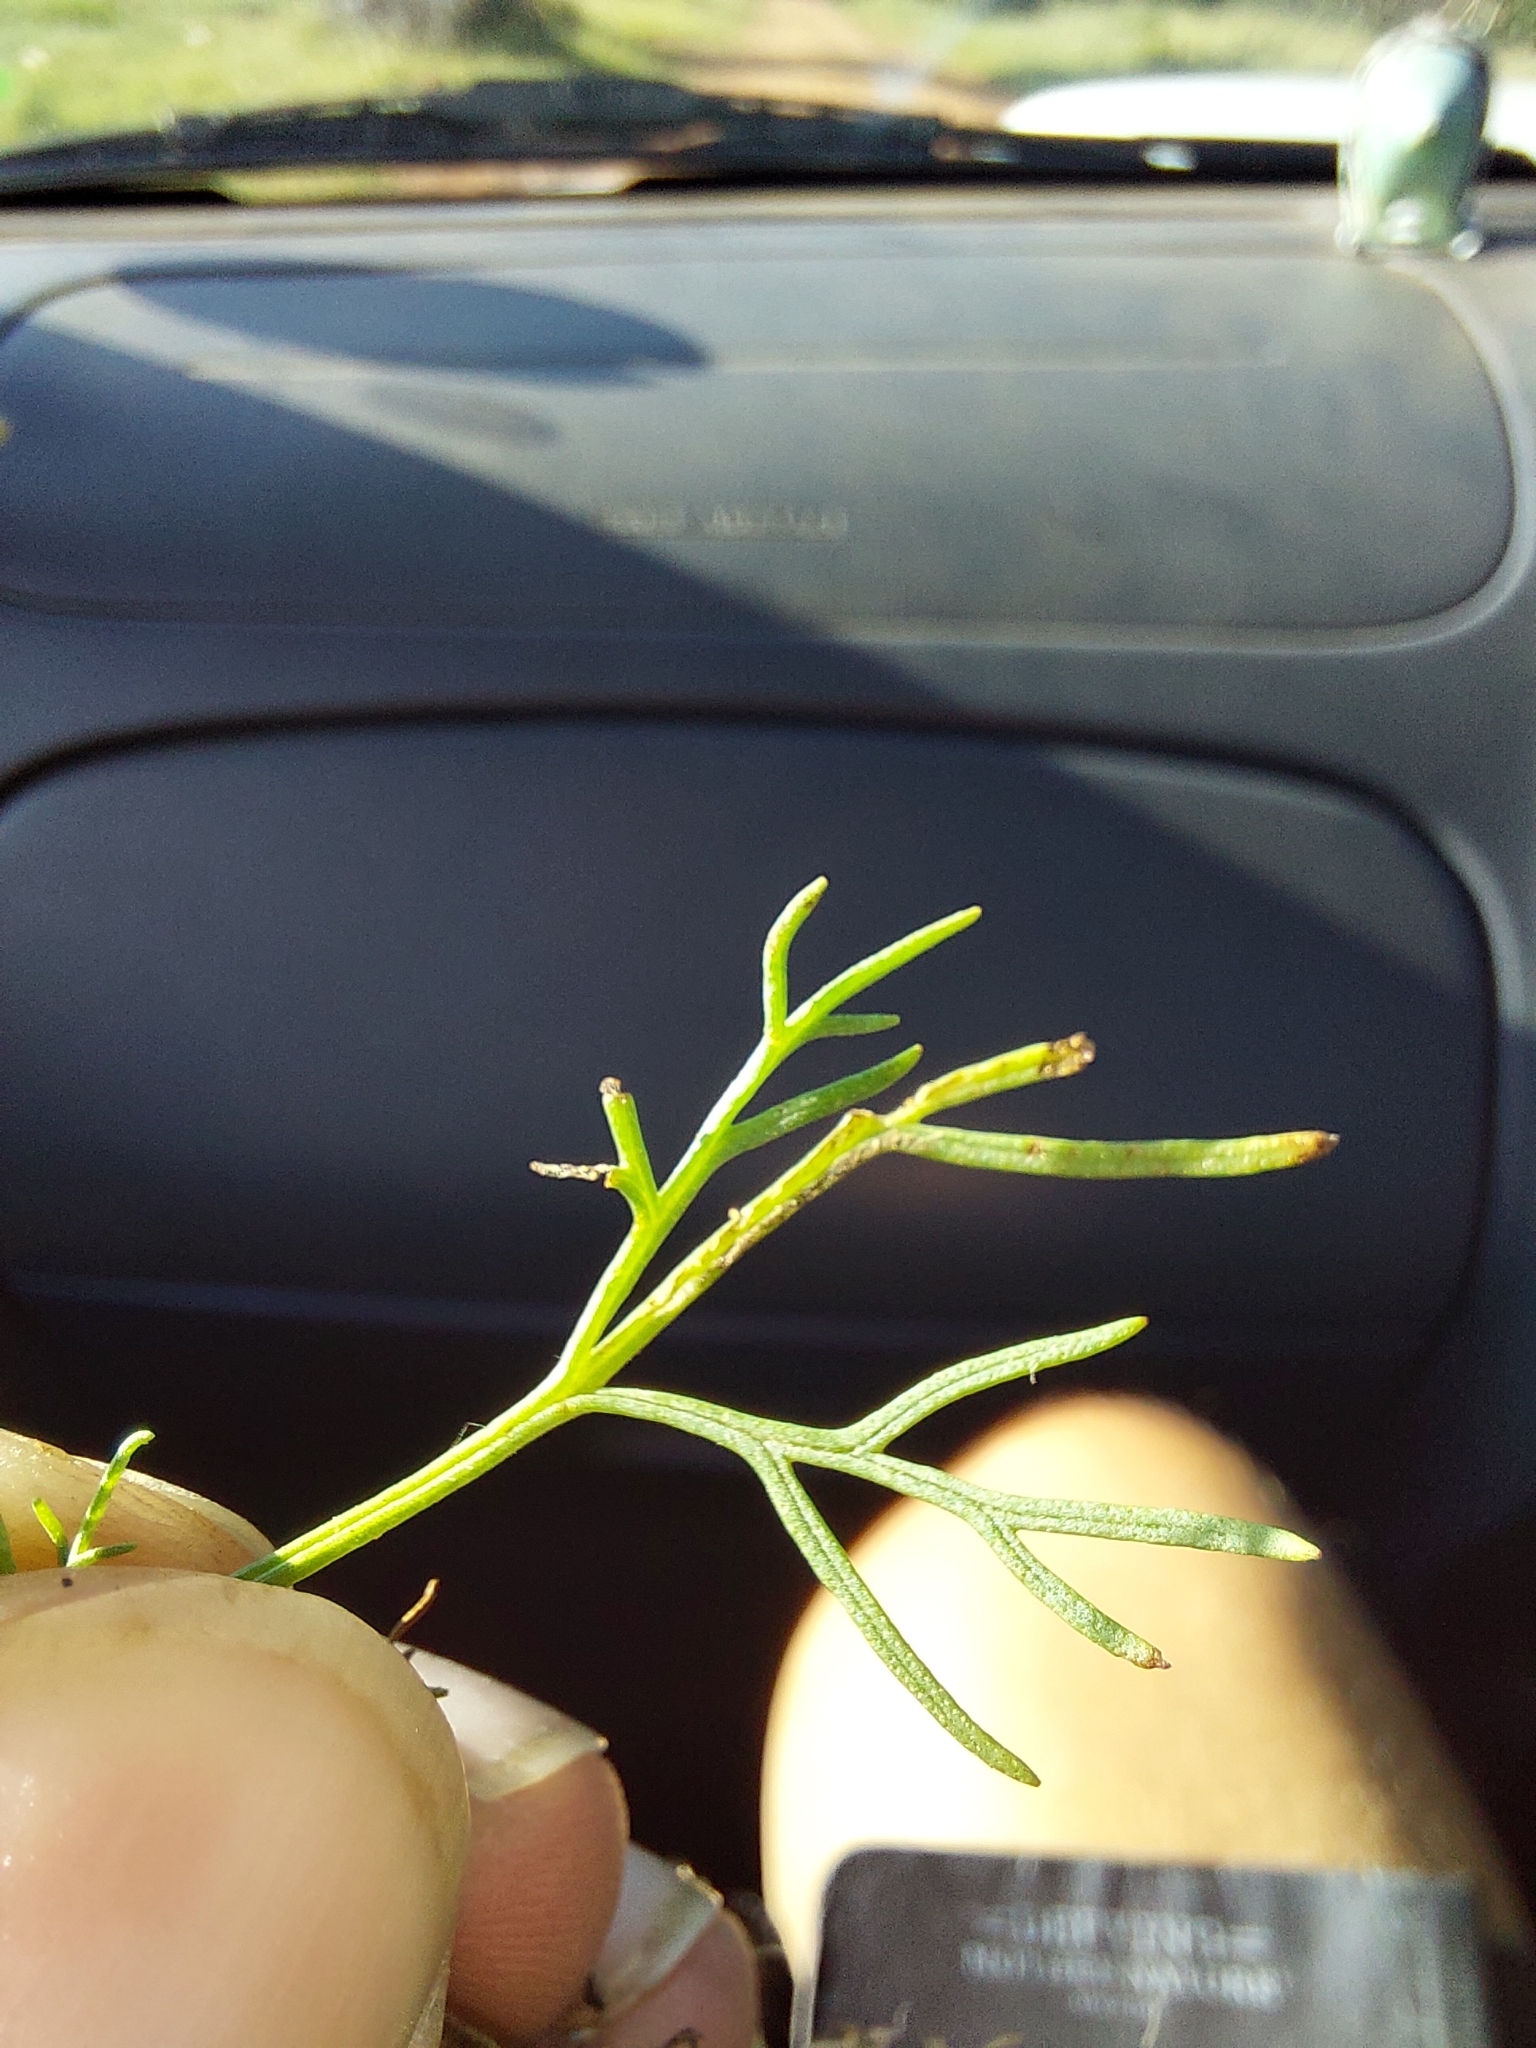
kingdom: Plantae
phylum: Tracheophyta
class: Magnoliopsida
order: Asterales
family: Asteraceae
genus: Schkuhria
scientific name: Schkuhria pinnata
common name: Dwarf marigold
